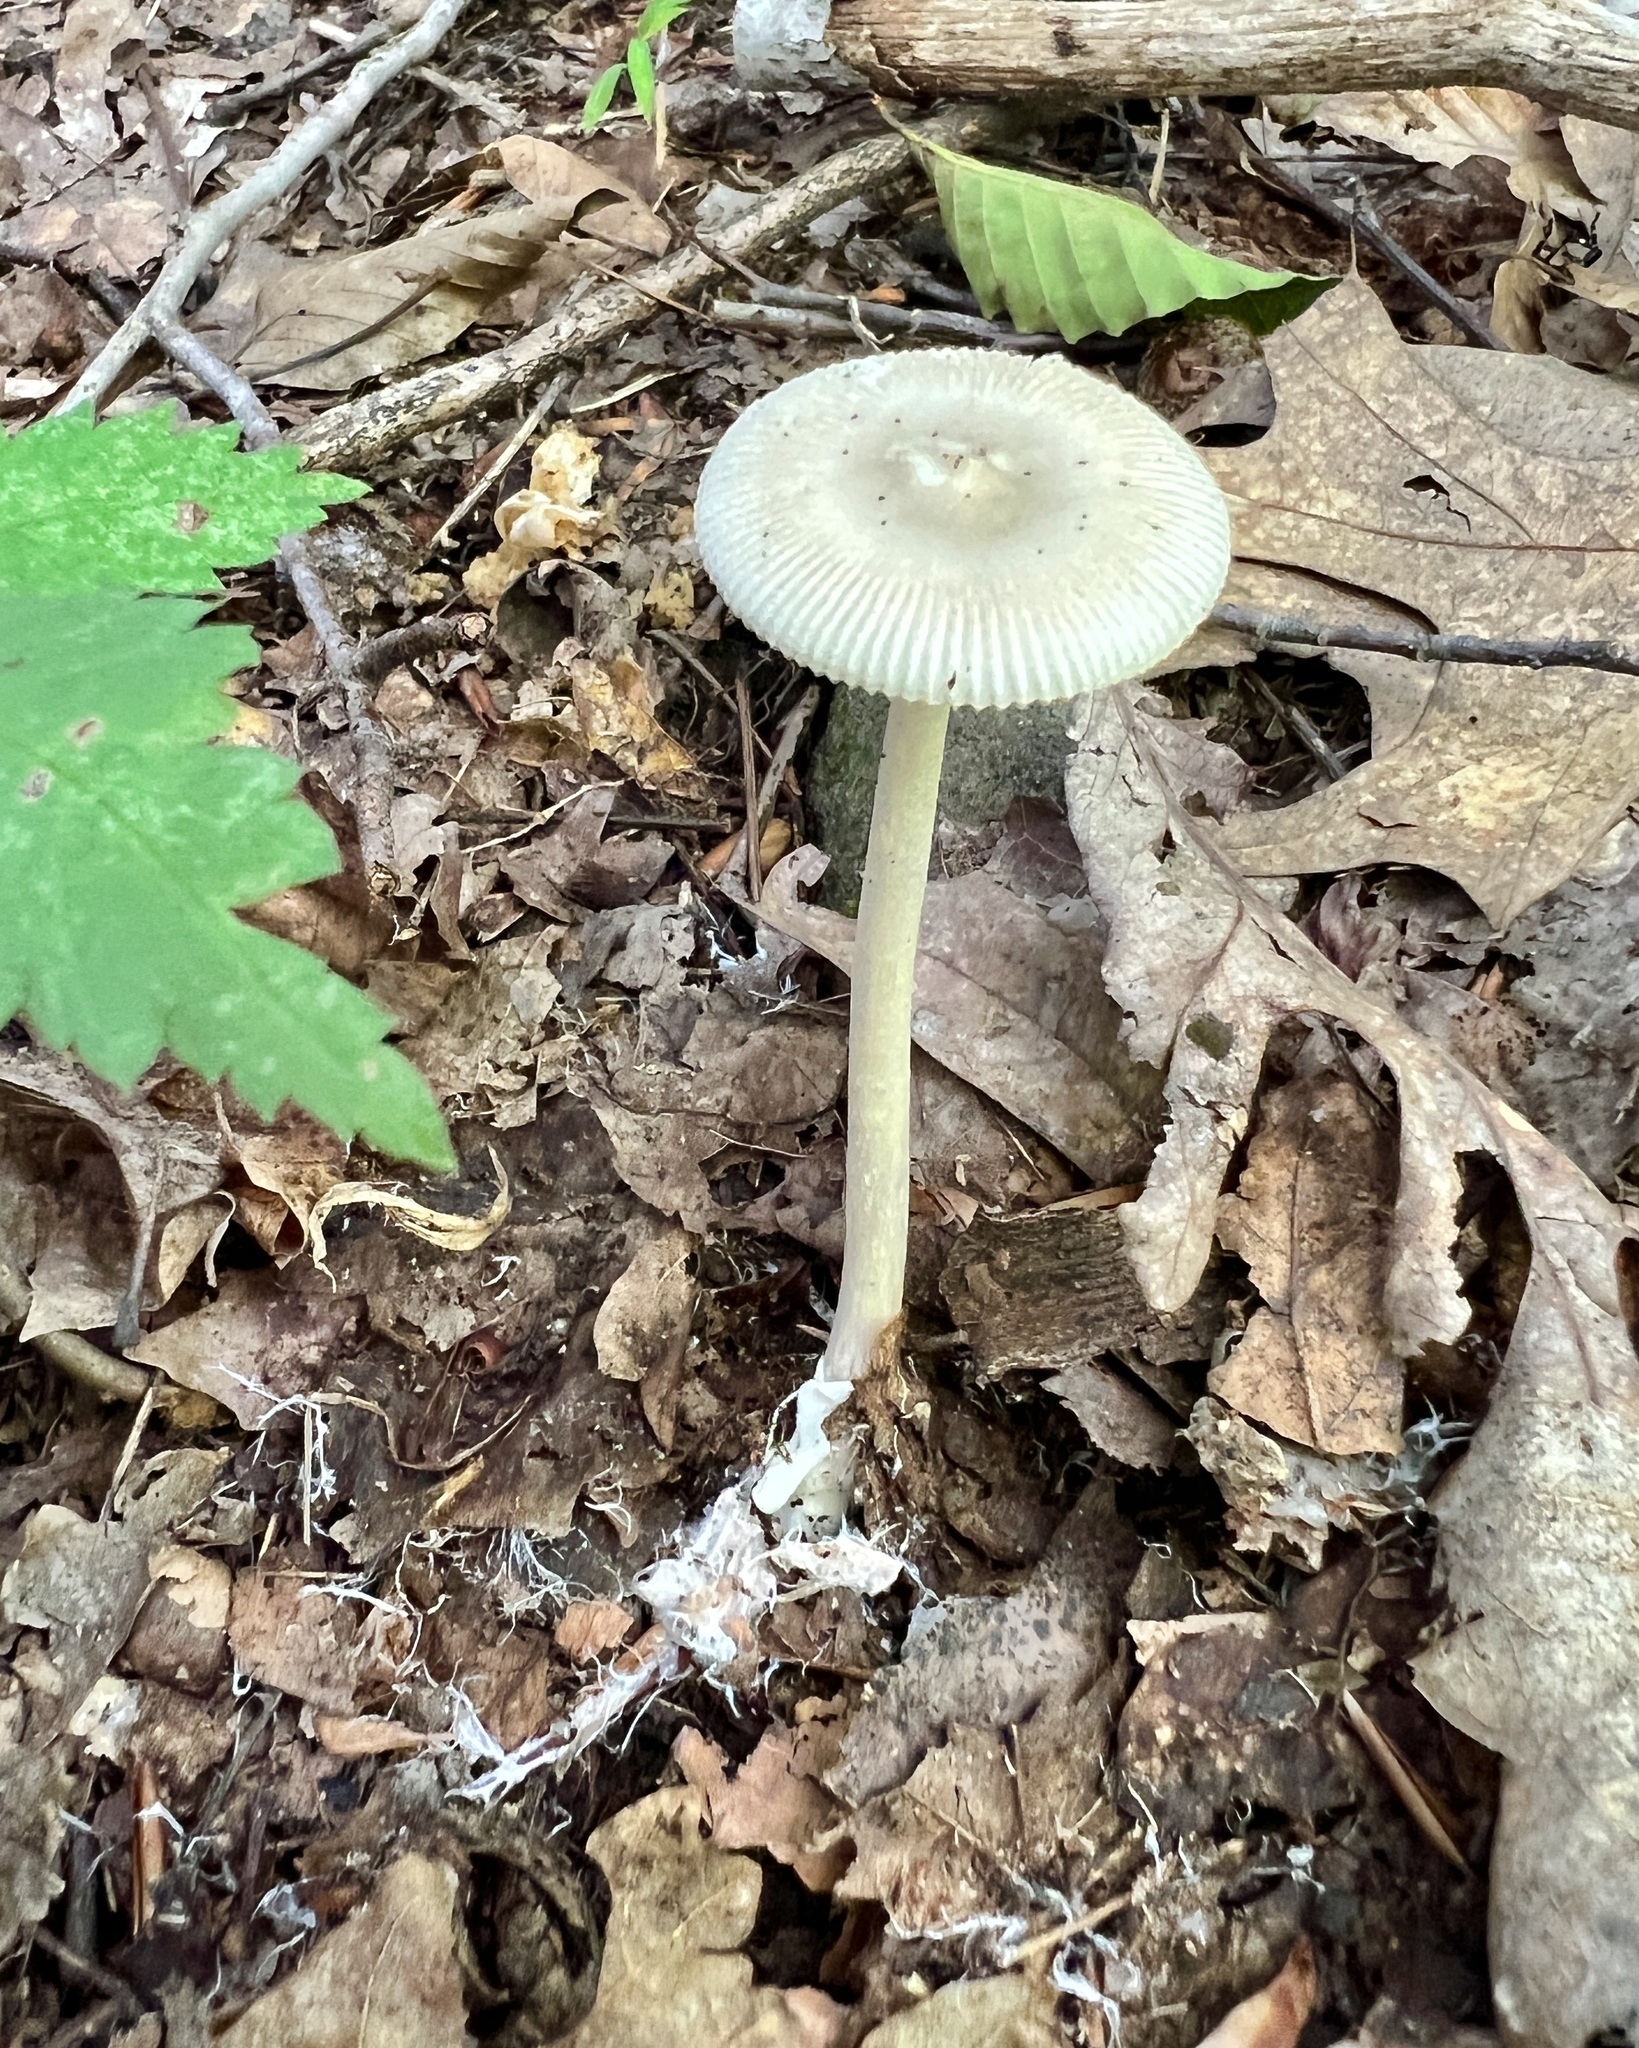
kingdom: Fungi
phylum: Basidiomycota
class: Agaricomycetes
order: Agaricales
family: Amanitaceae
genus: Amanita
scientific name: Amanita vaginata
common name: Grisette
